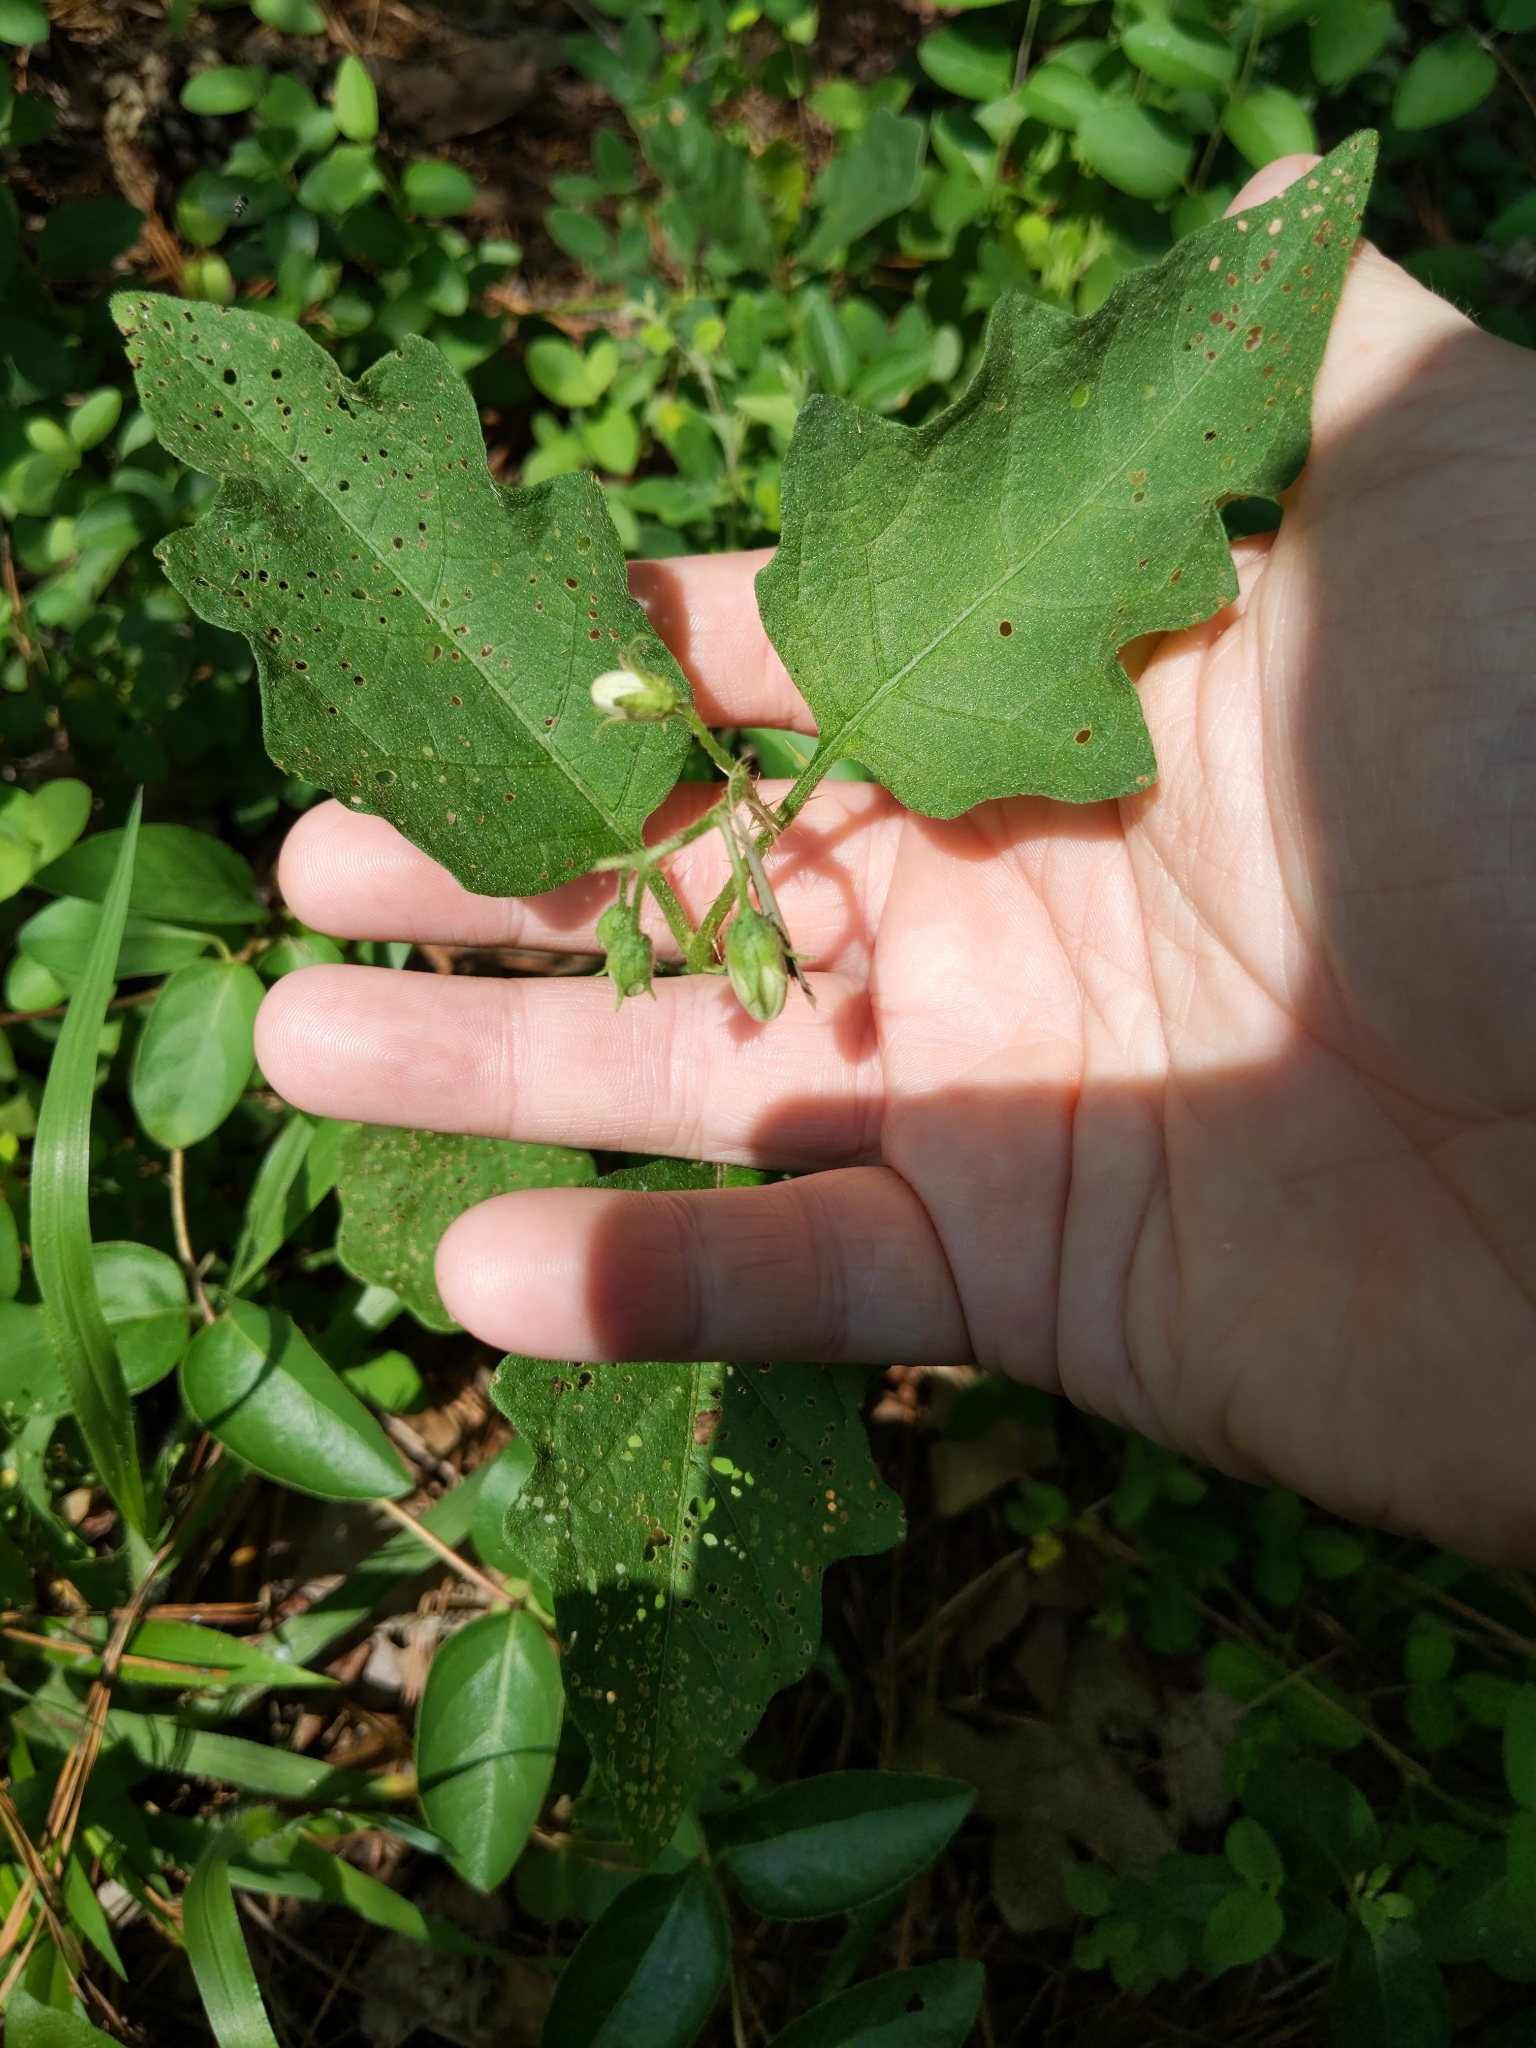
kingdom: Plantae
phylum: Tracheophyta
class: Magnoliopsida
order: Solanales
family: Solanaceae
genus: Solanum
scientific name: Solanum carolinense
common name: Horse-nettle
